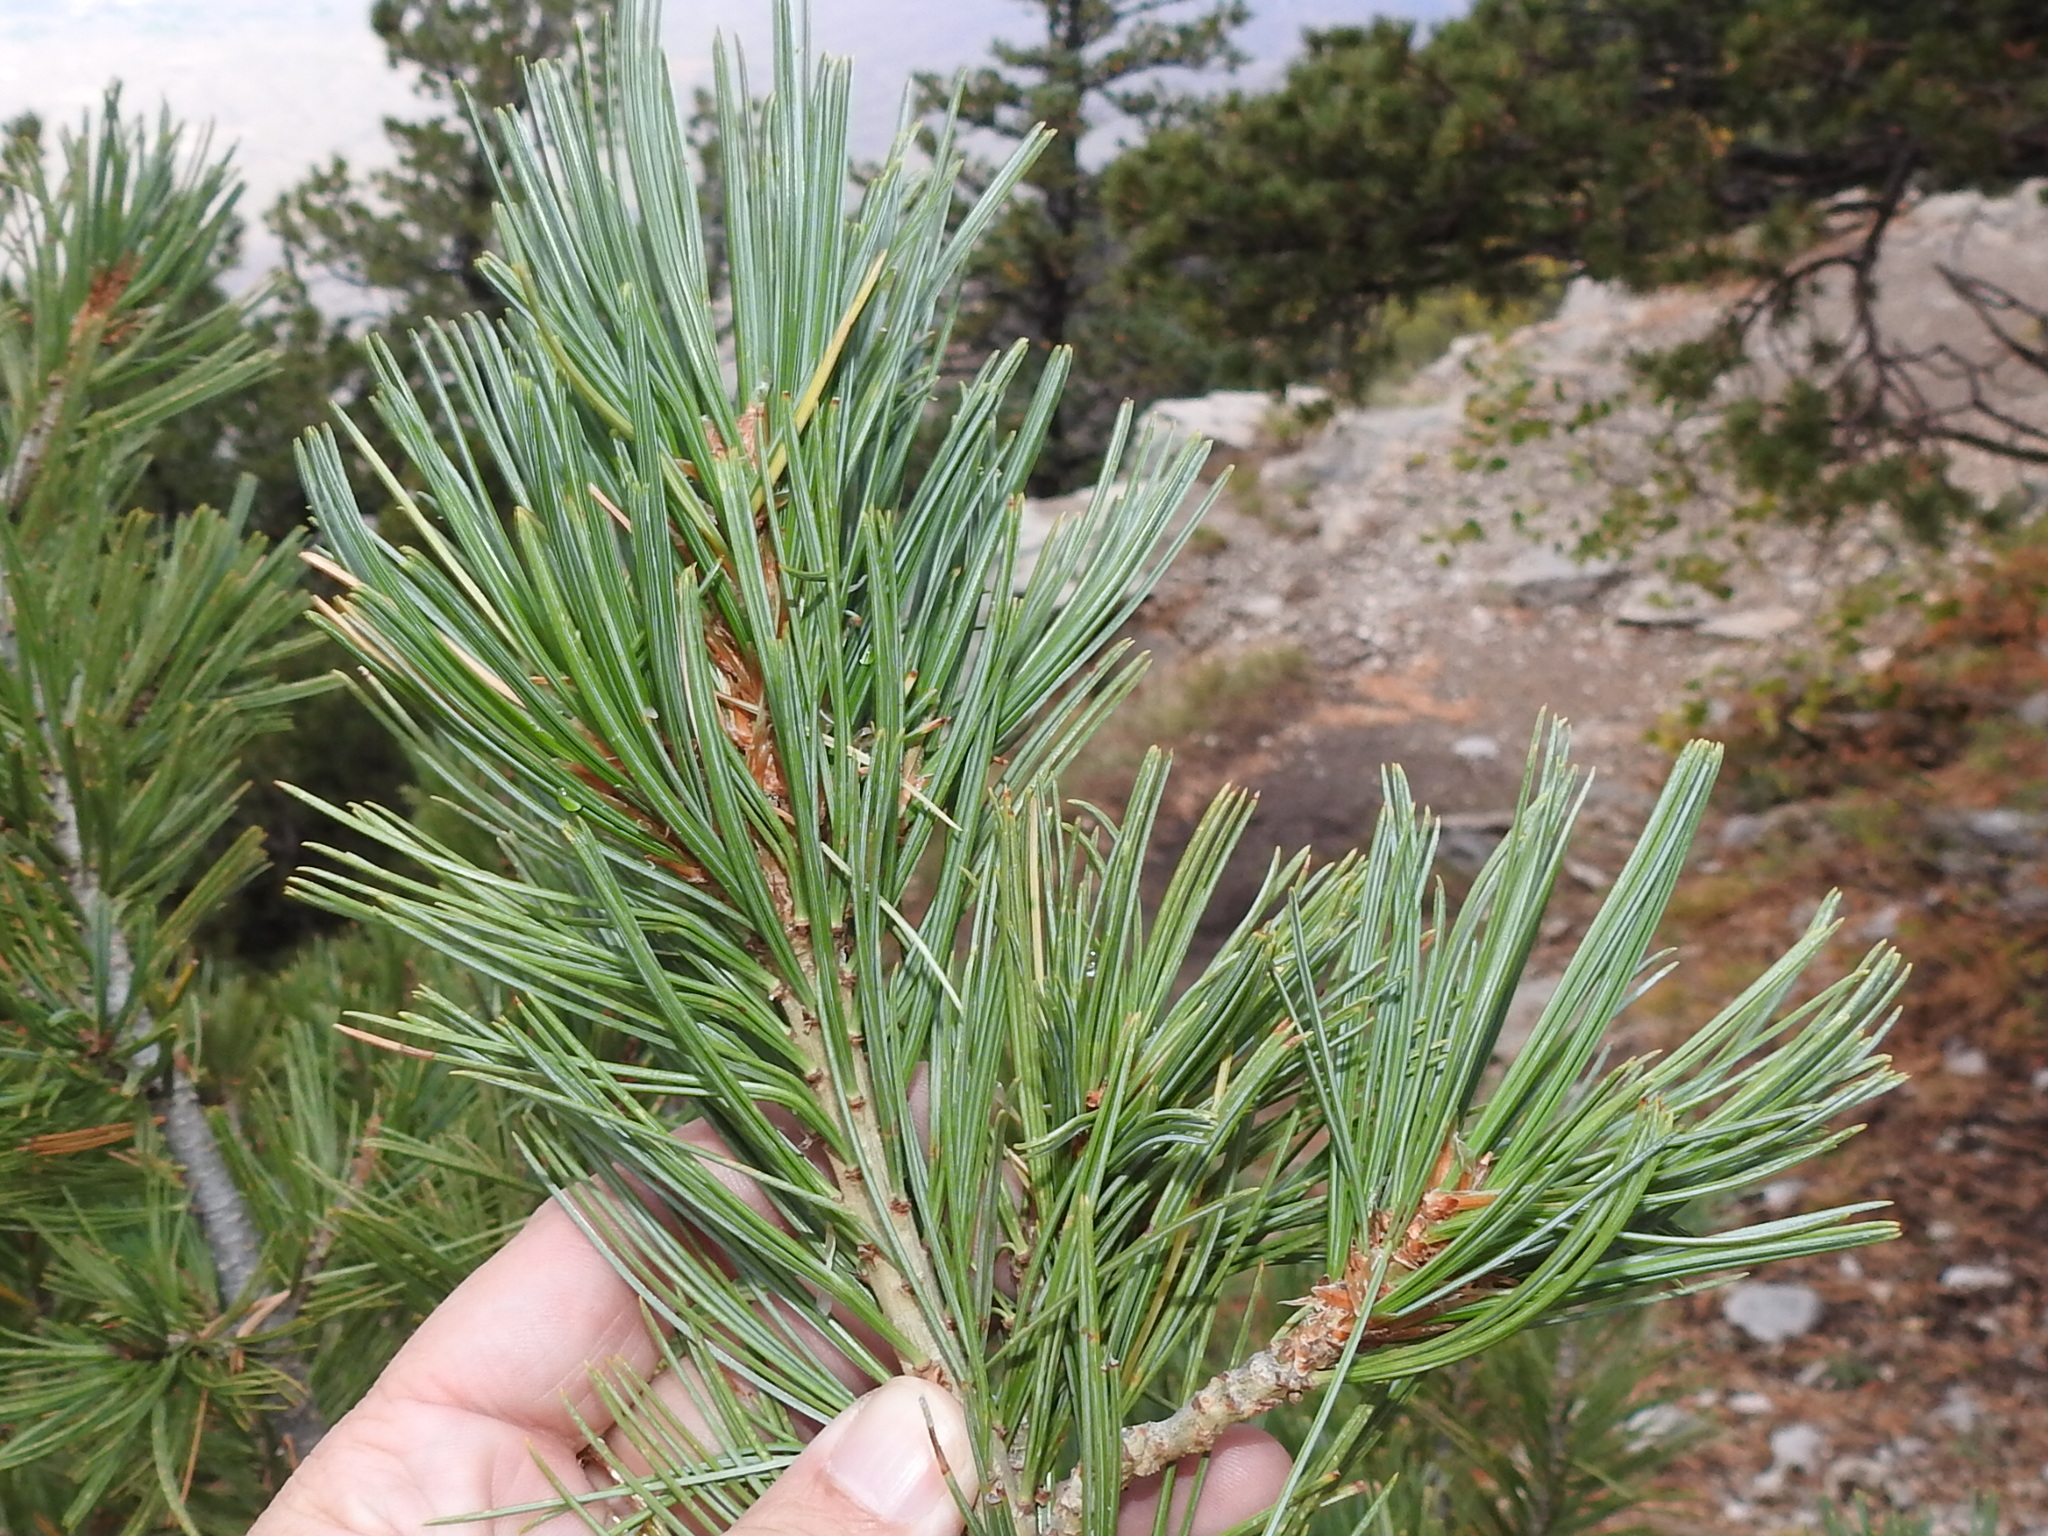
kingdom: Plantae
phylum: Tracheophyta
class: Pinopsida
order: Pinales
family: Pinaceae
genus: Pinus
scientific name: Pinus flexilis
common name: Limber pine
